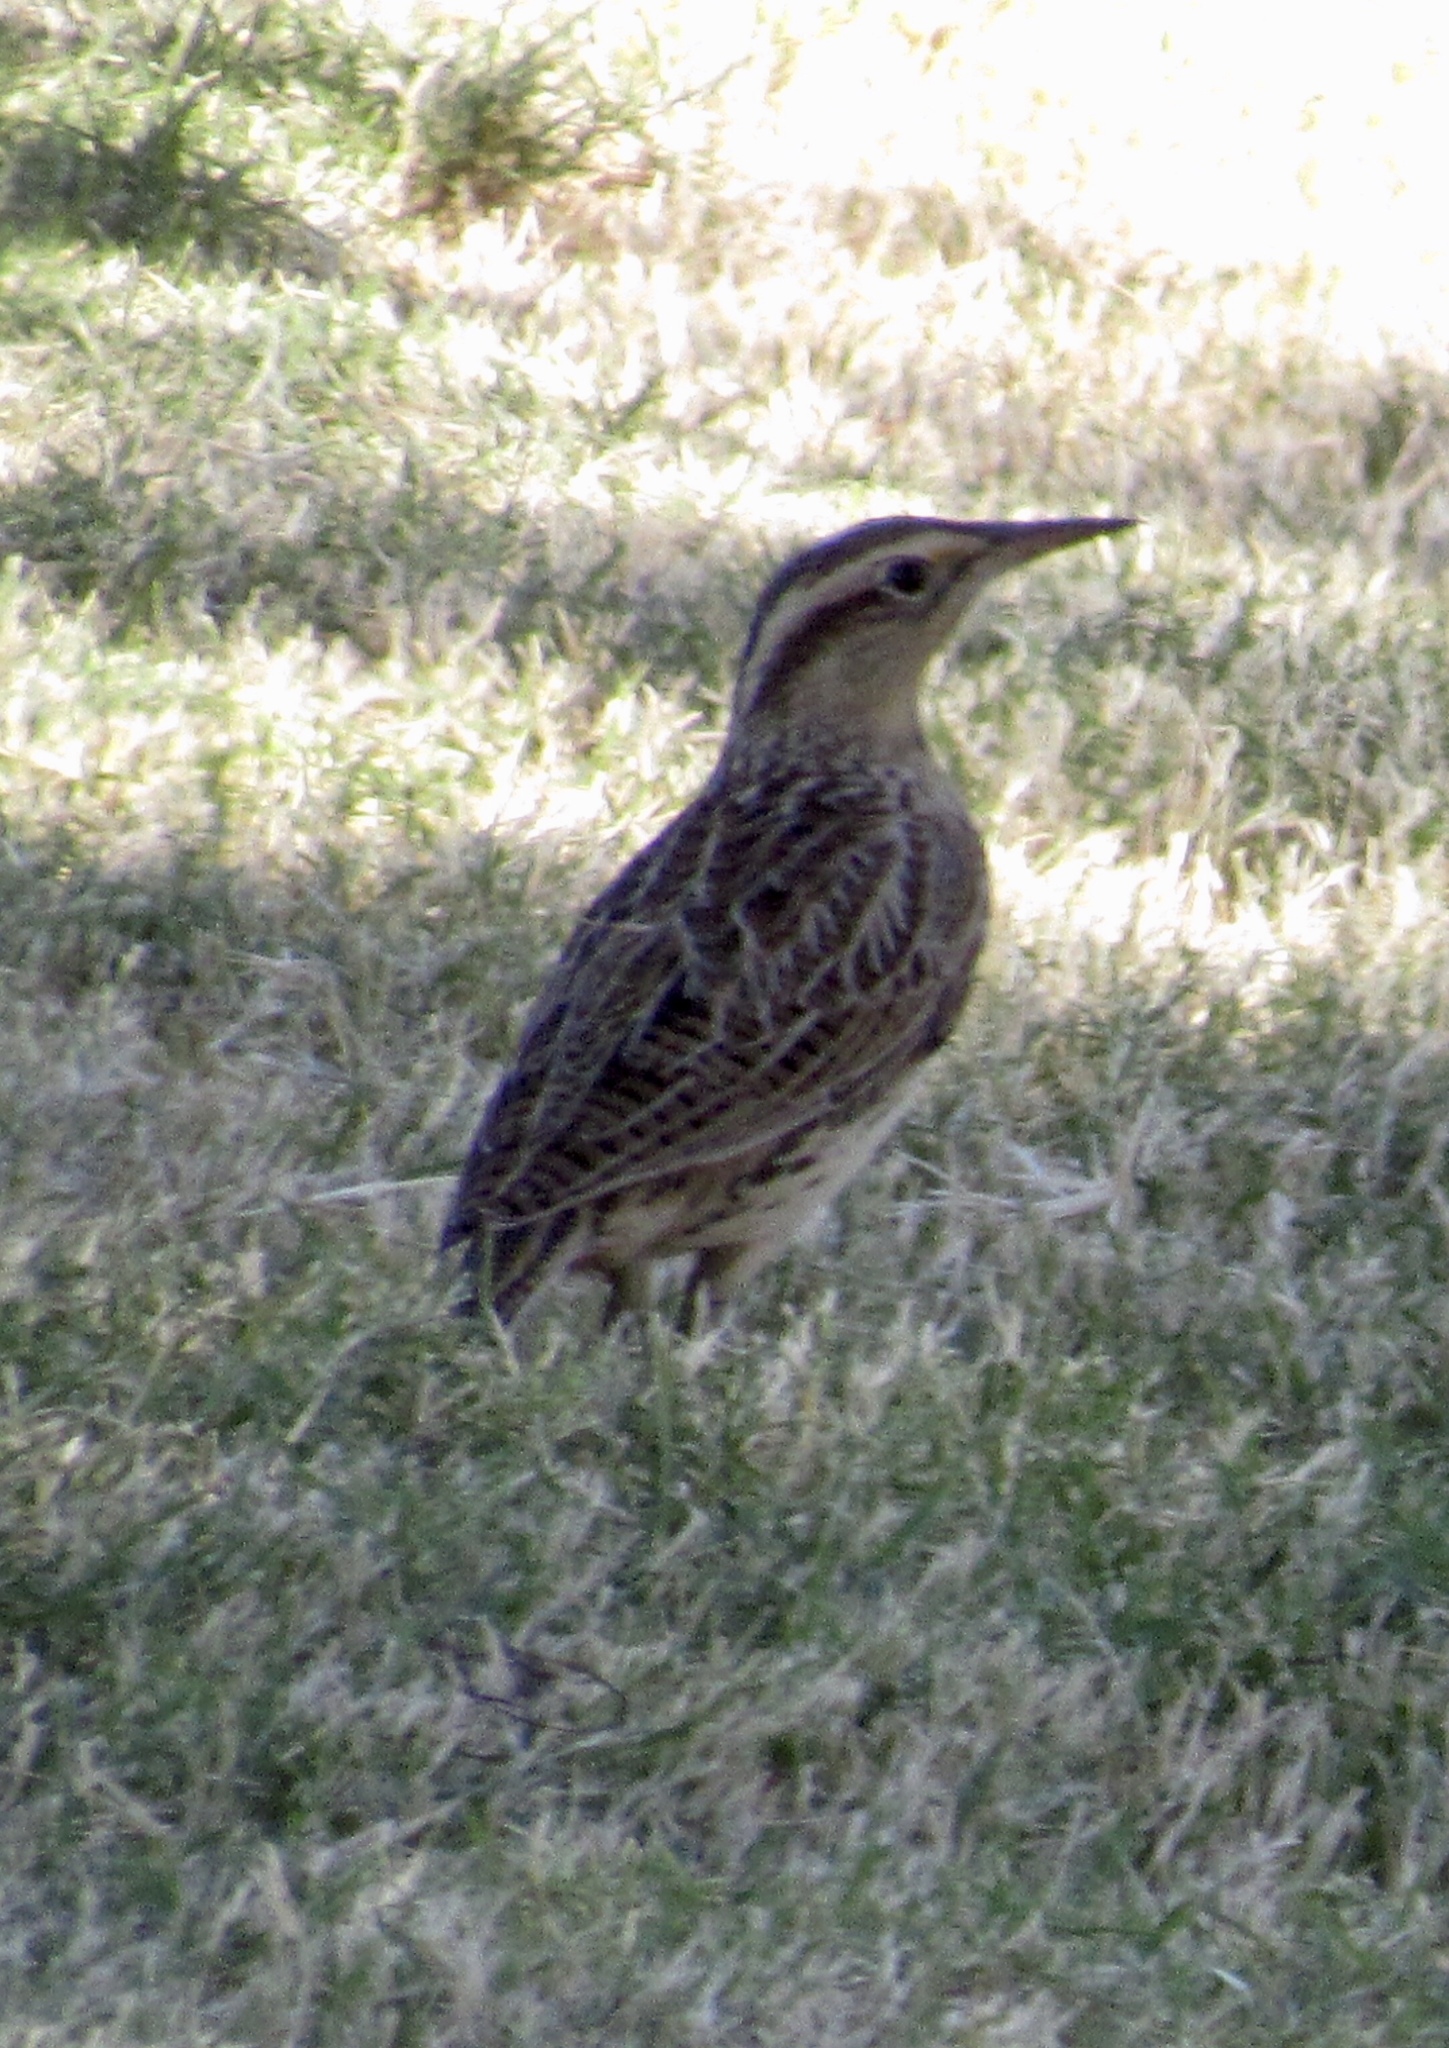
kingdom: Animalia
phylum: Chordata
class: Aves
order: Passeriformes
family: Icteridae
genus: Sturnella
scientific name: Sturnella neglecta
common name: Western meadowlark
